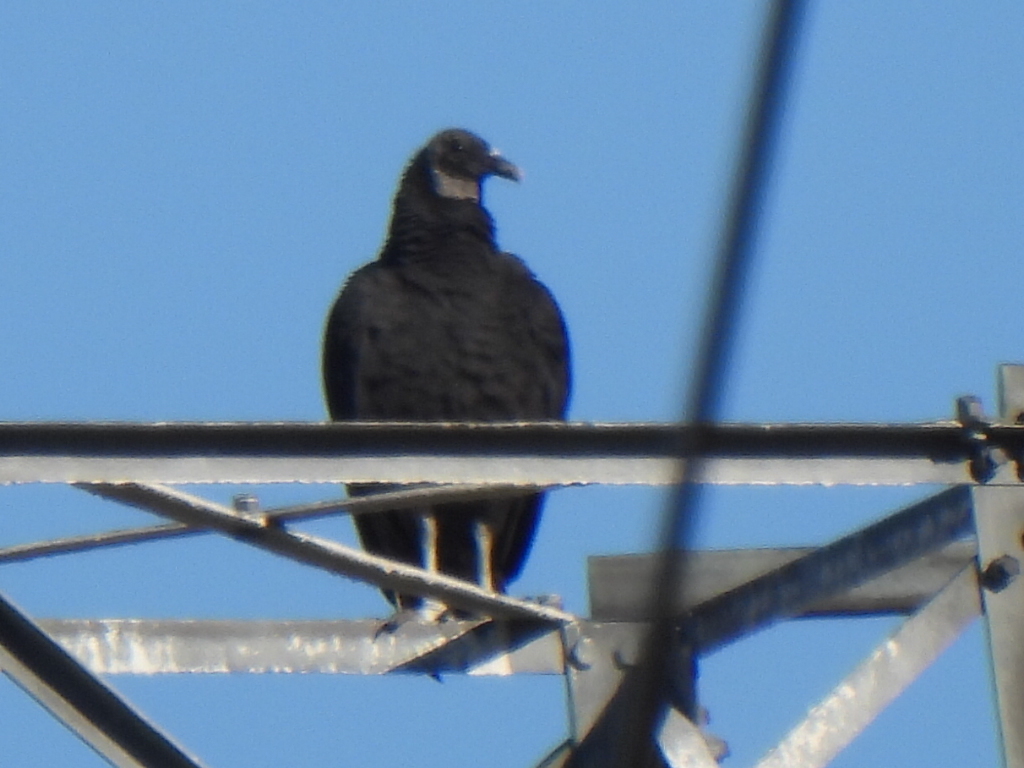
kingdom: Animalia
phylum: Chordata
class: Aves
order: Accipitriformes
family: Cathartidae
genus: Coragyps
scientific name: Coragyps atratus
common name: Black vulture
